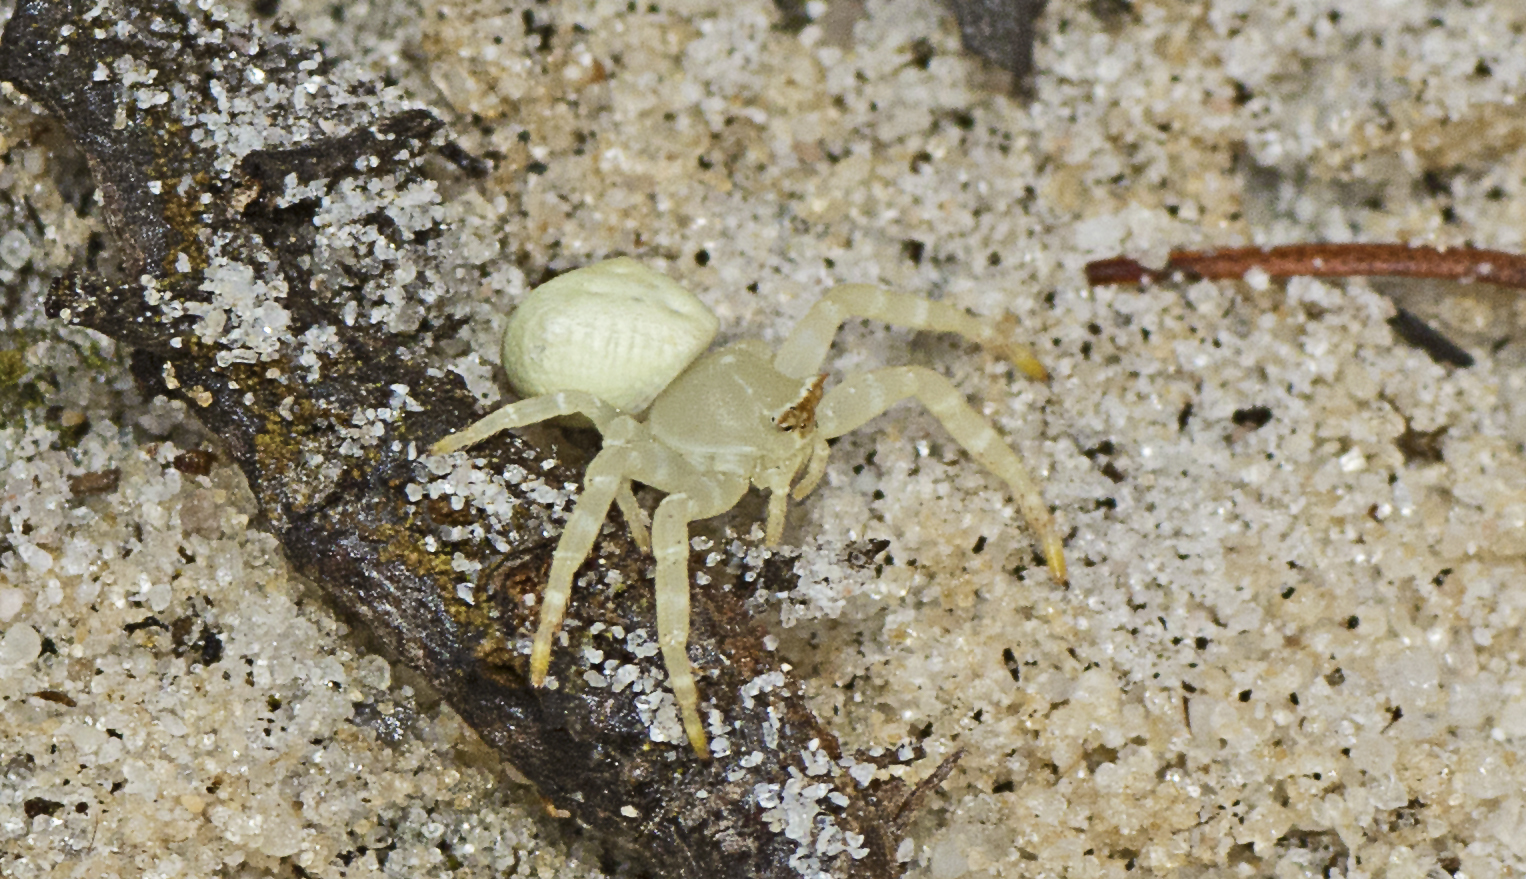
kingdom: Animalia
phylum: Arthropoda
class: Arachnida
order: Araneae
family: Thomisidae
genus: Thomisus
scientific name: Thomisus spectabilis
